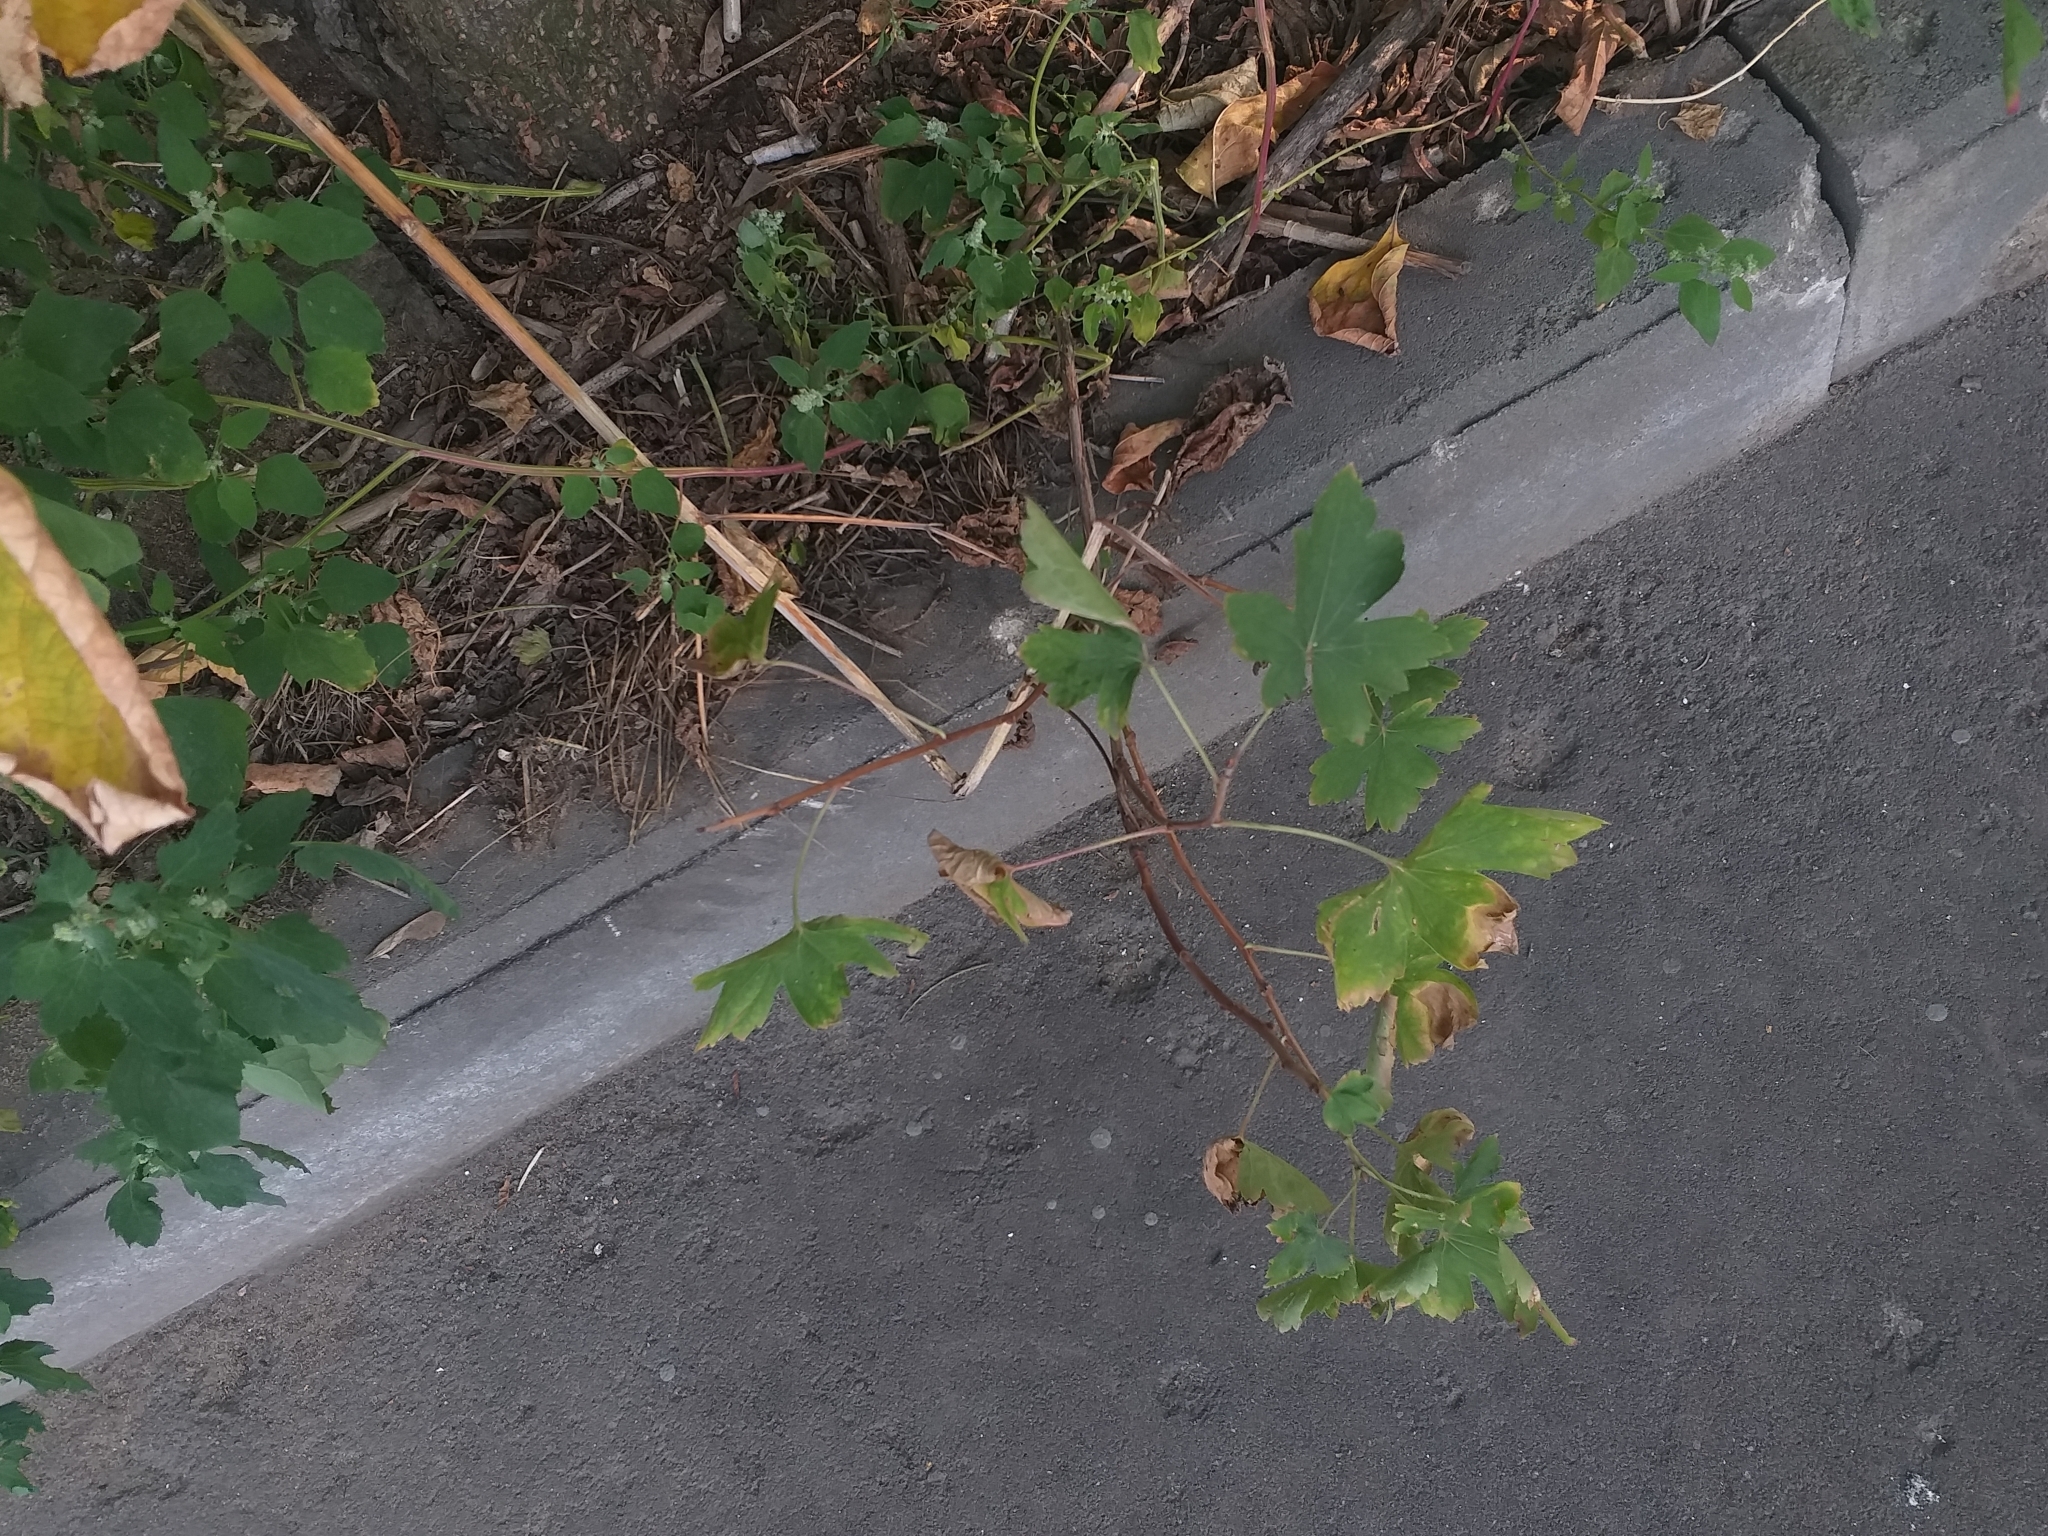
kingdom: Plantae
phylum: Tracheophyta
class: Magnoliopsida
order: Saxifragales
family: Grossulariaceae
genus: Ribes
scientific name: Ribes aureum
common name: Golden currant
